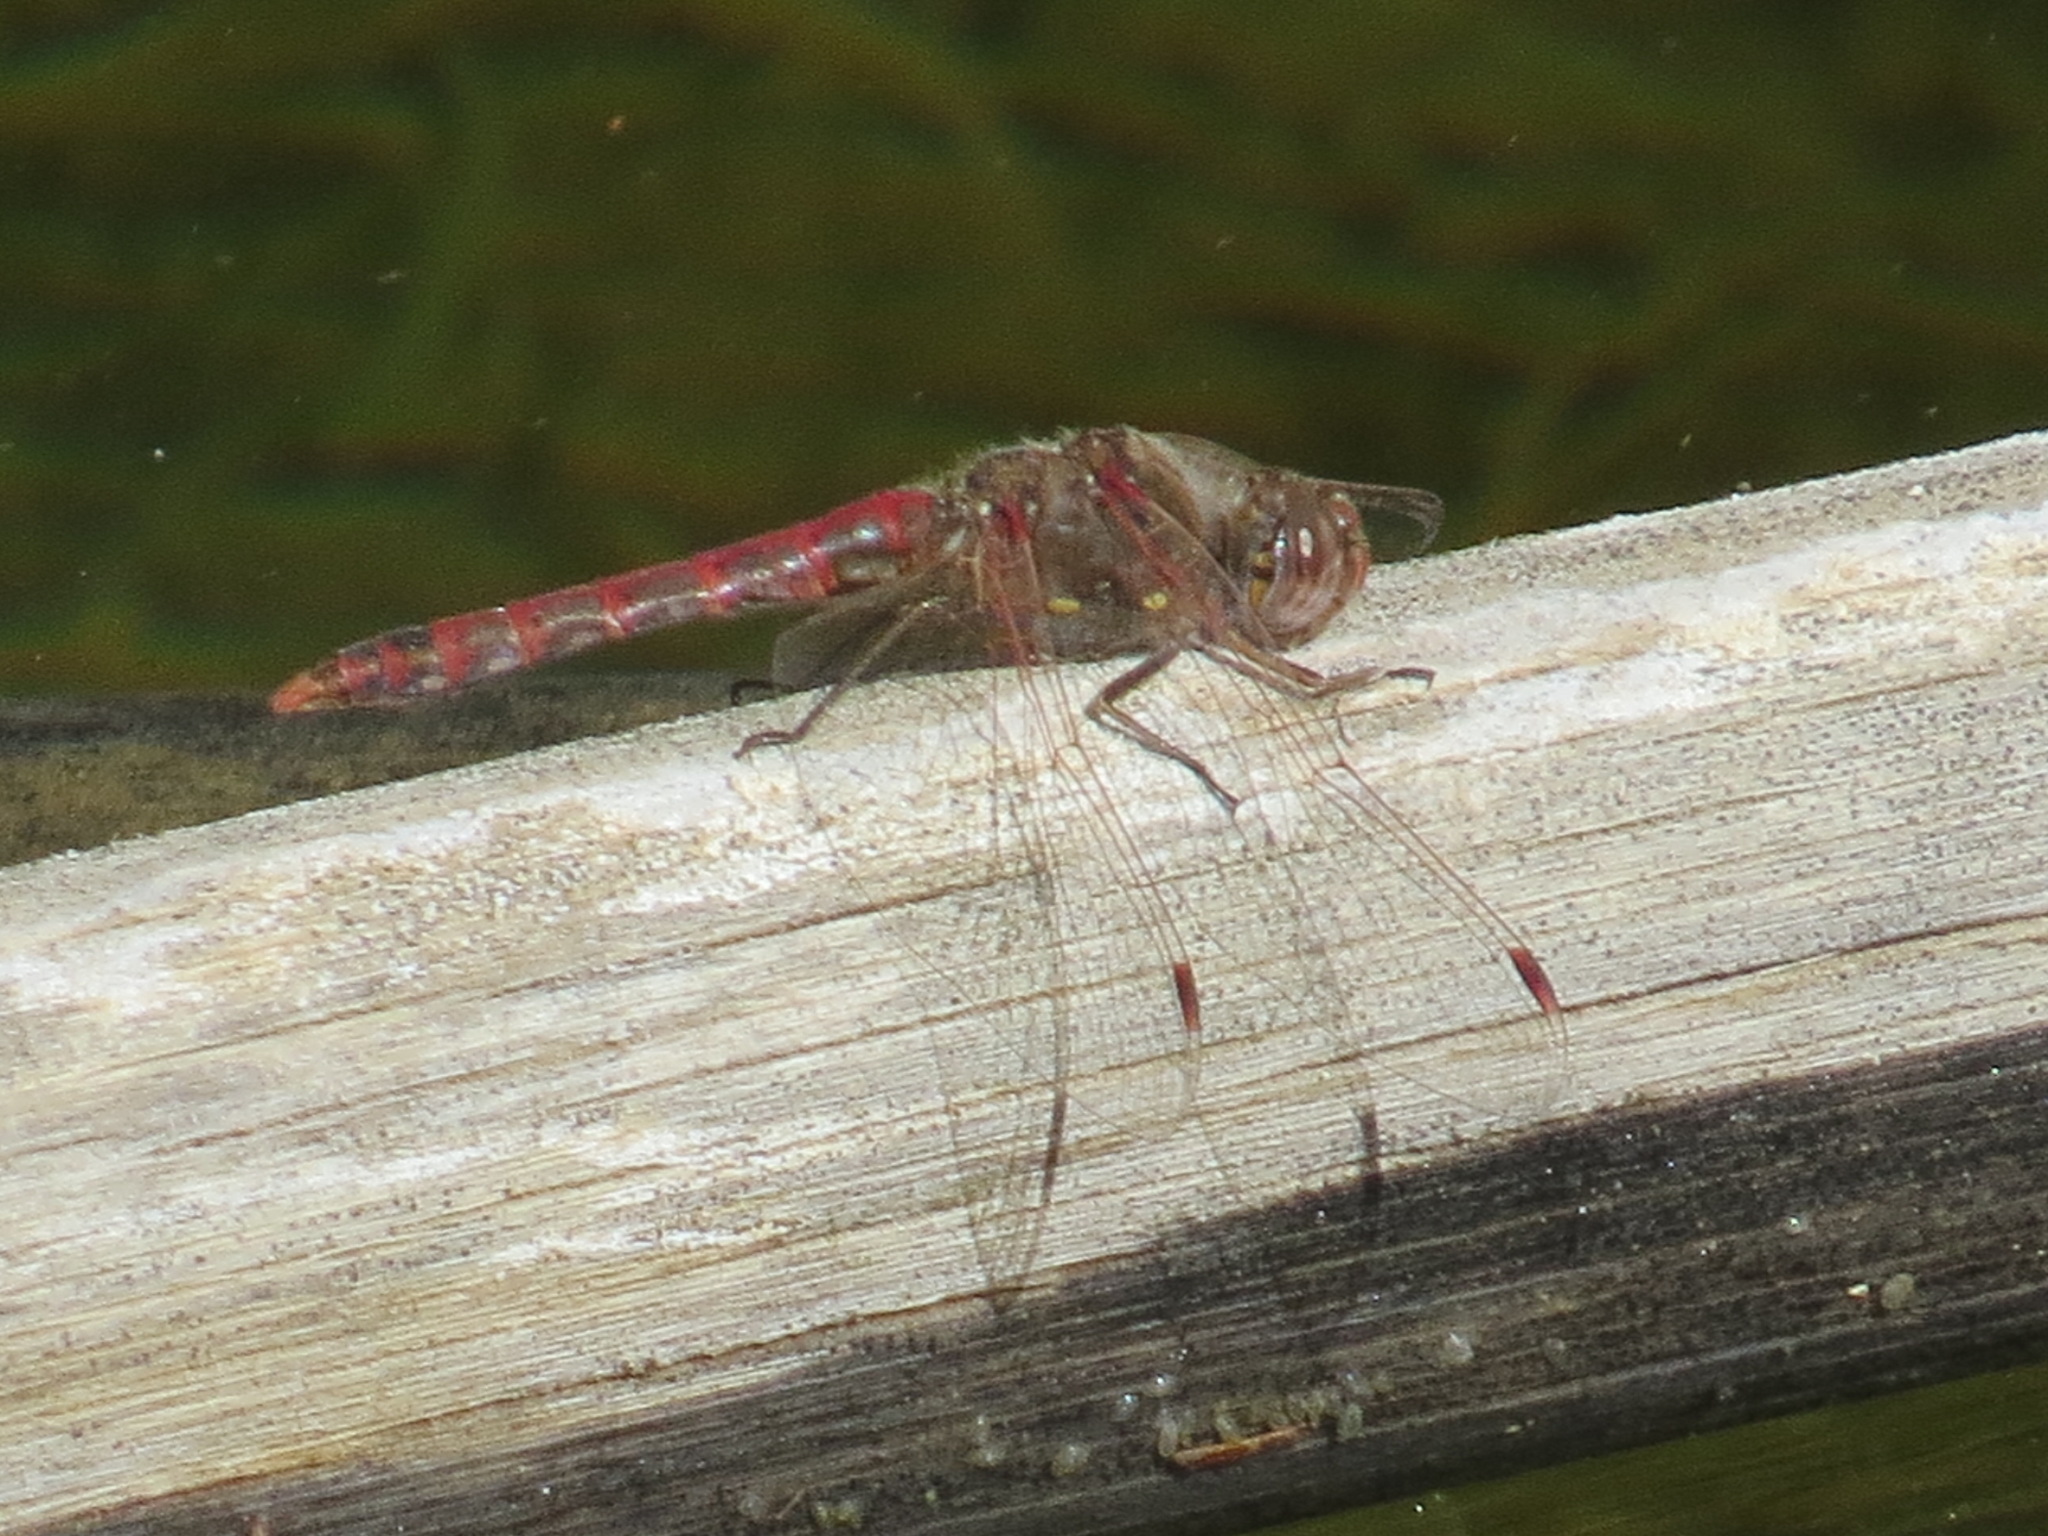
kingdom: Animalia
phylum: Arthropoda
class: Insecta
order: Odonata
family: Libellulidae
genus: Sympetrum
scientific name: Sympetrum corruptum
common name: Variegated meadowhawk
